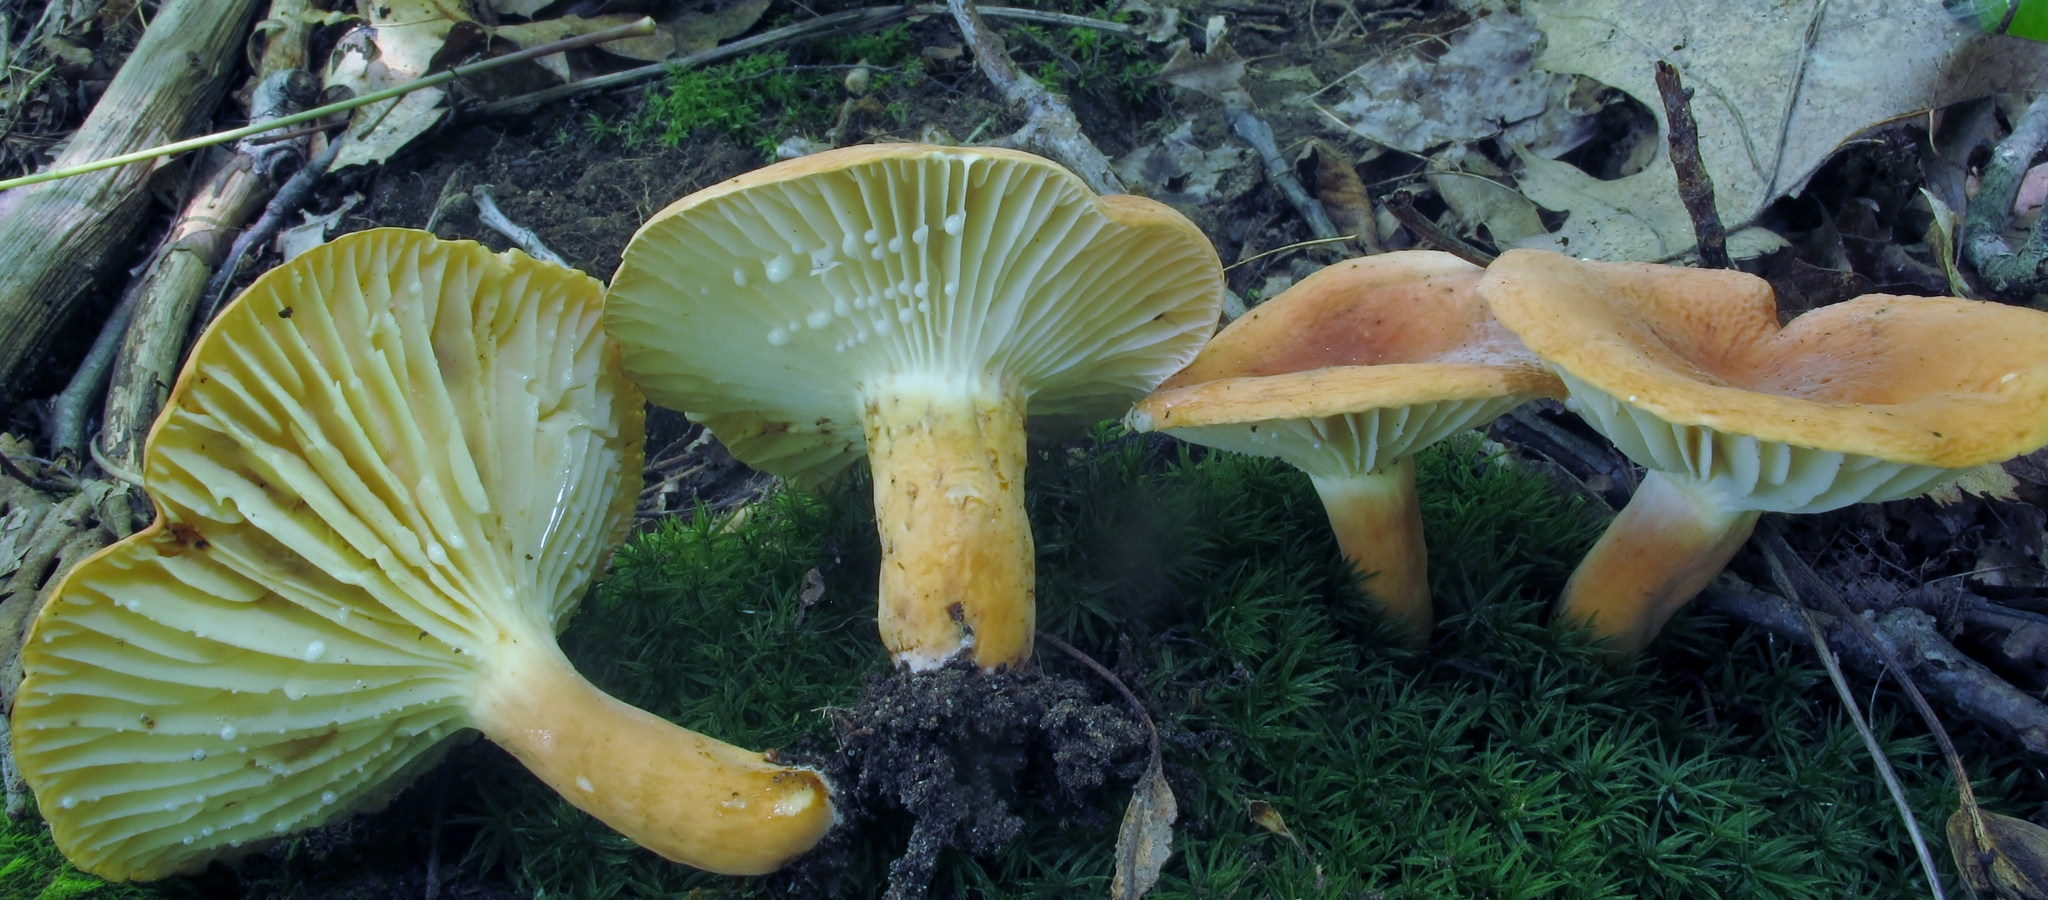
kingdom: Fungi
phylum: Basidiomycota
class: Agaricomycetes
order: Russulales
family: Russulaceae
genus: Lactarius
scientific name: Lactarius hygrophoroides
